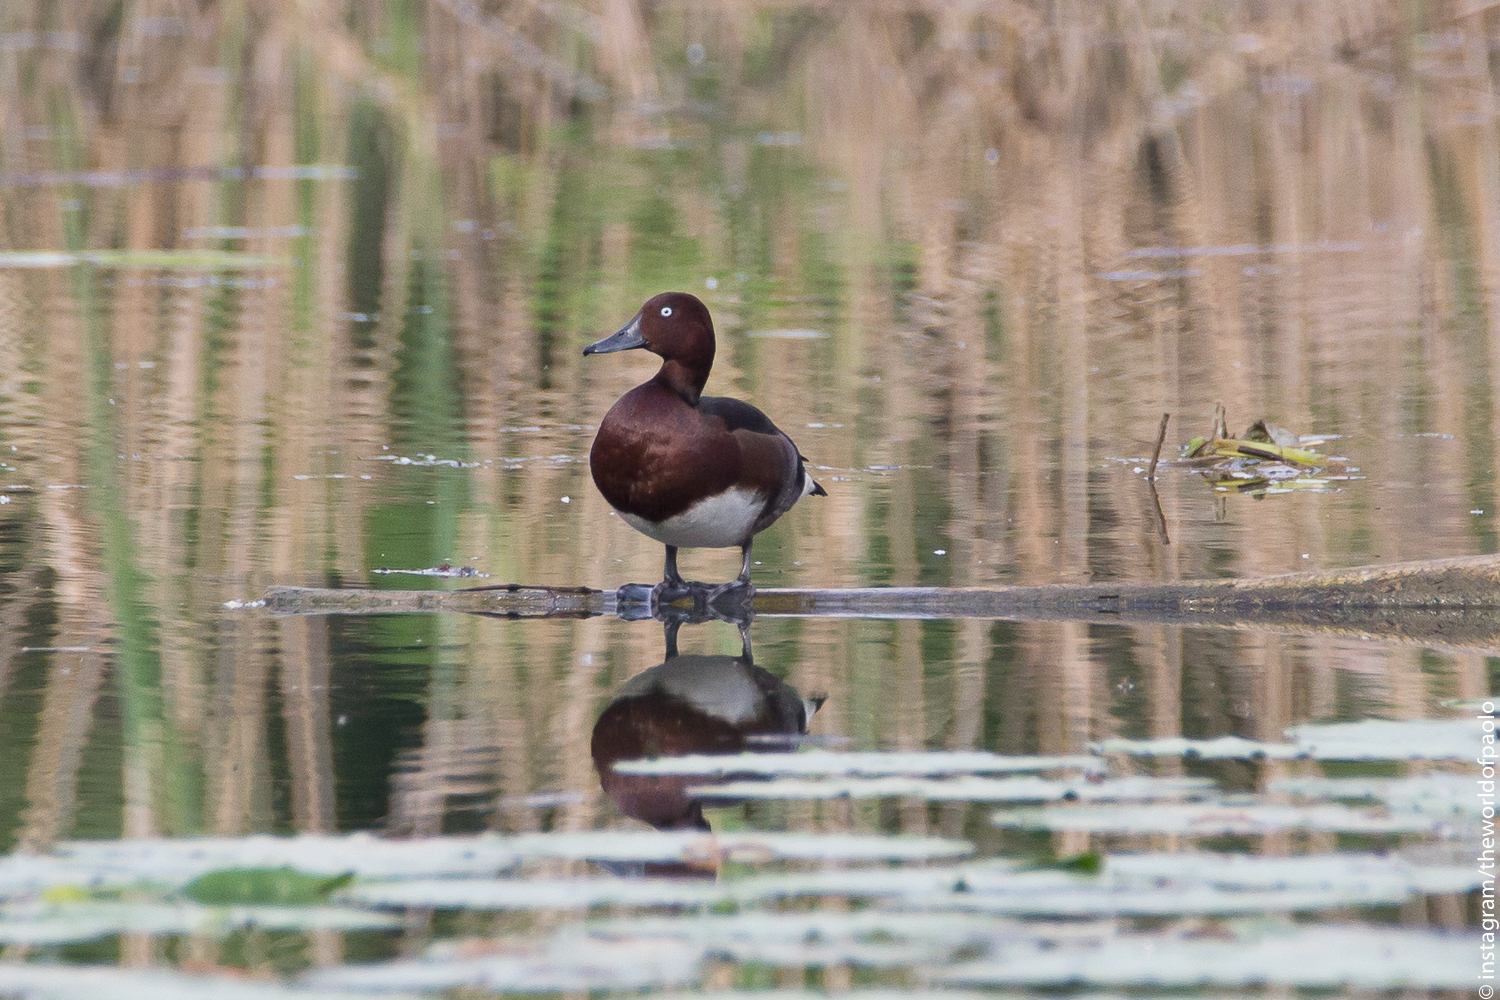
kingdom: Animalia
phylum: Chordata
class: Aves
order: Anseriformes
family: Anatidae
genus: Aythya
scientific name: Aythya nyroca
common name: Ferruginous duck
